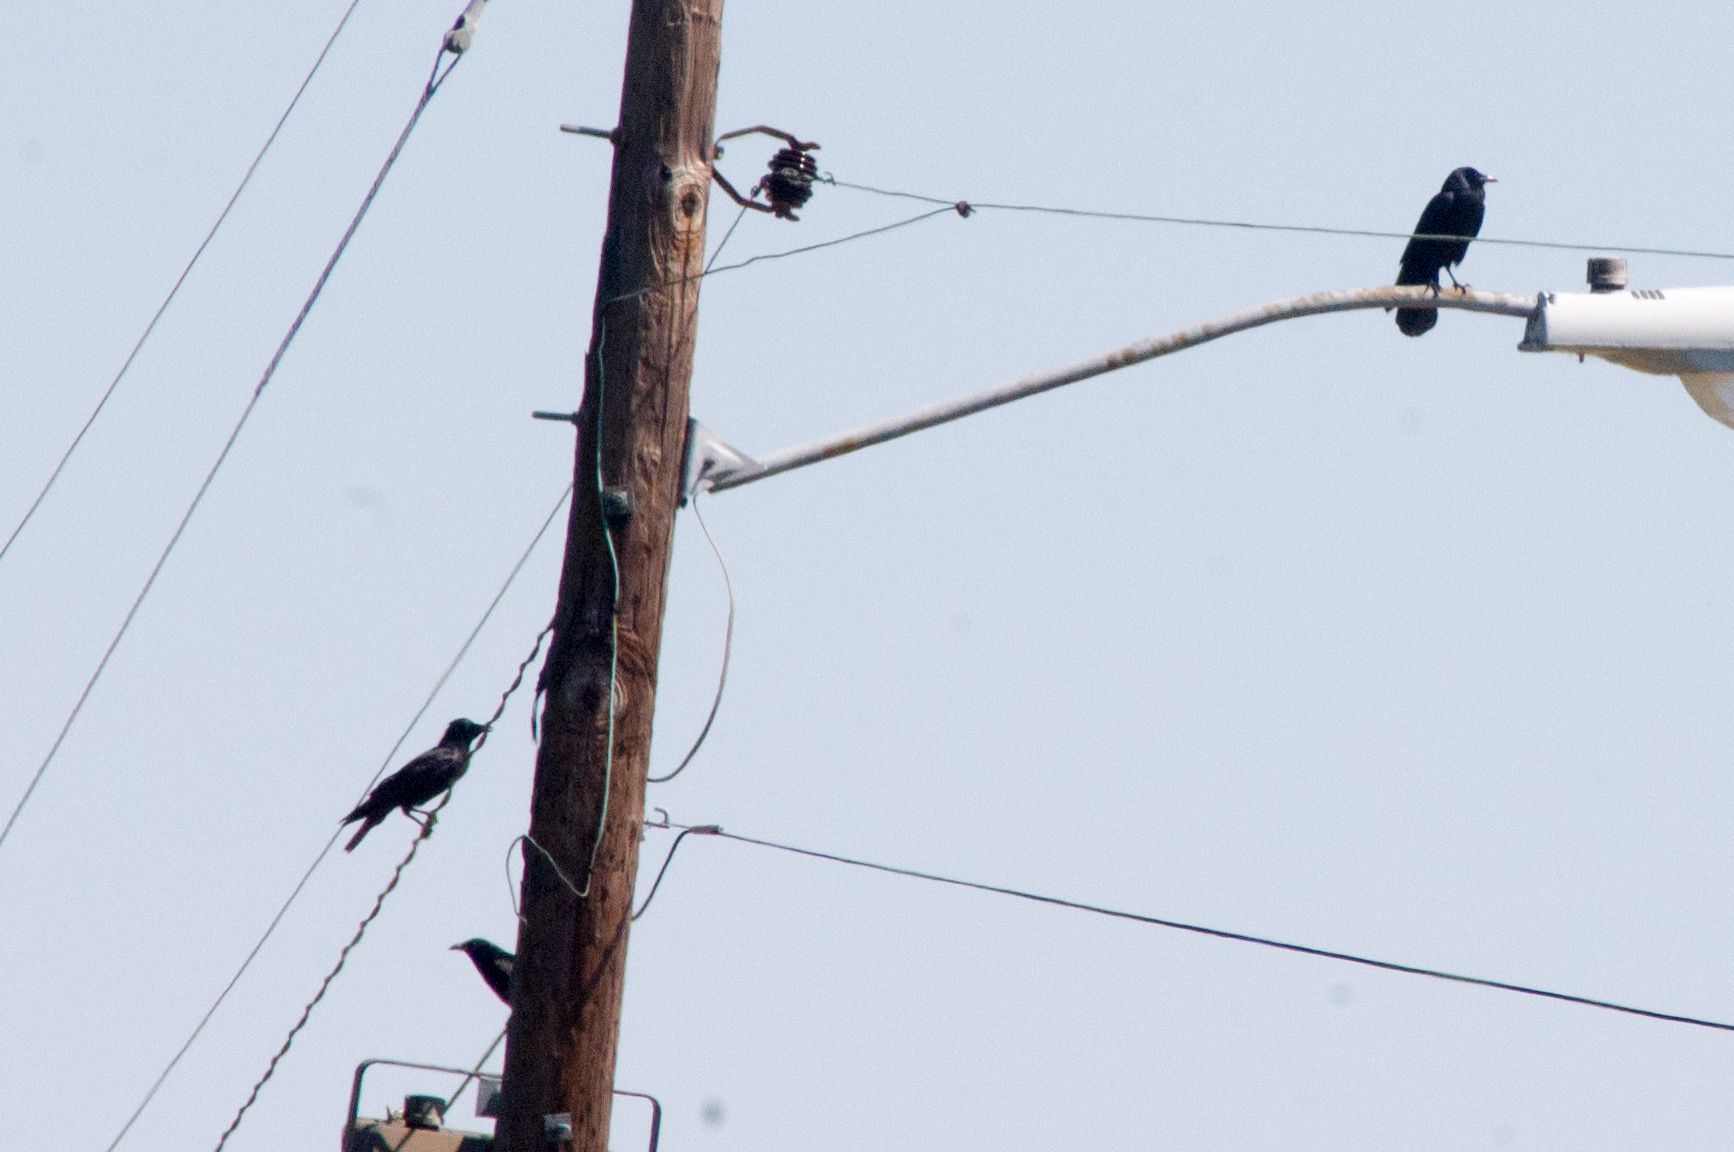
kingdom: Animalia
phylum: Chordata
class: Aves
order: Passeriformes
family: Corvidae
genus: Corvus
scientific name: Corvus ossifragus
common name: Fish crow
